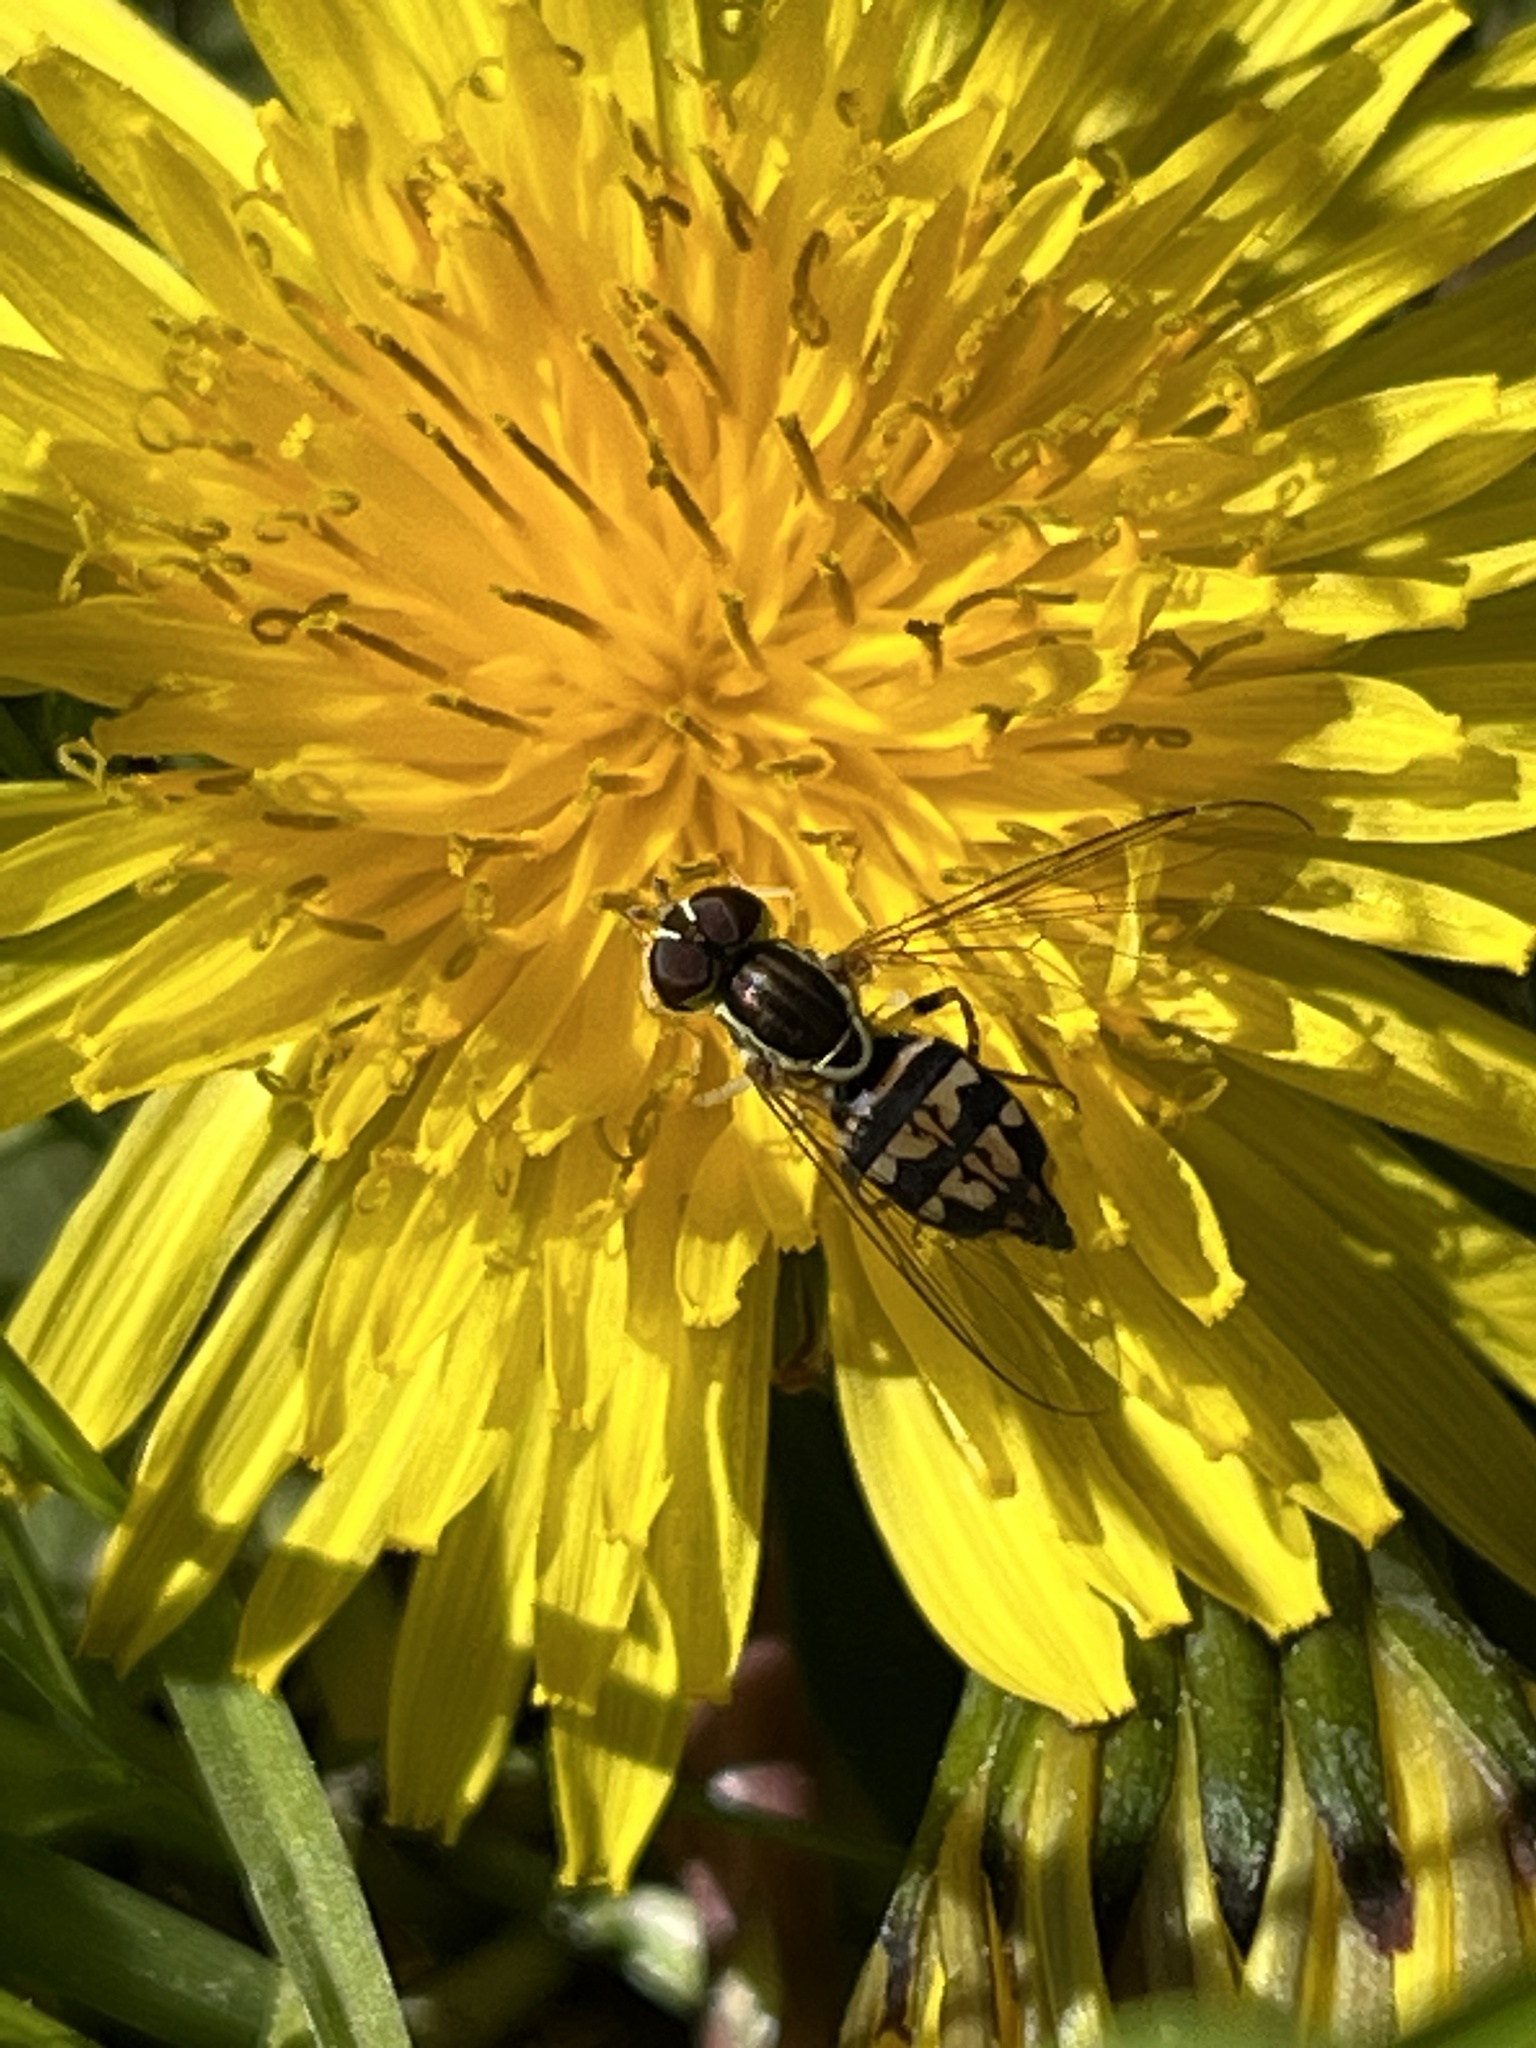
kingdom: Animalia
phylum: Arthropoda
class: Insecta
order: Diptera
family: Syrphidae
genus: Toxomerus
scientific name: Toxomerus geminatus
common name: Eastern calligrapher
